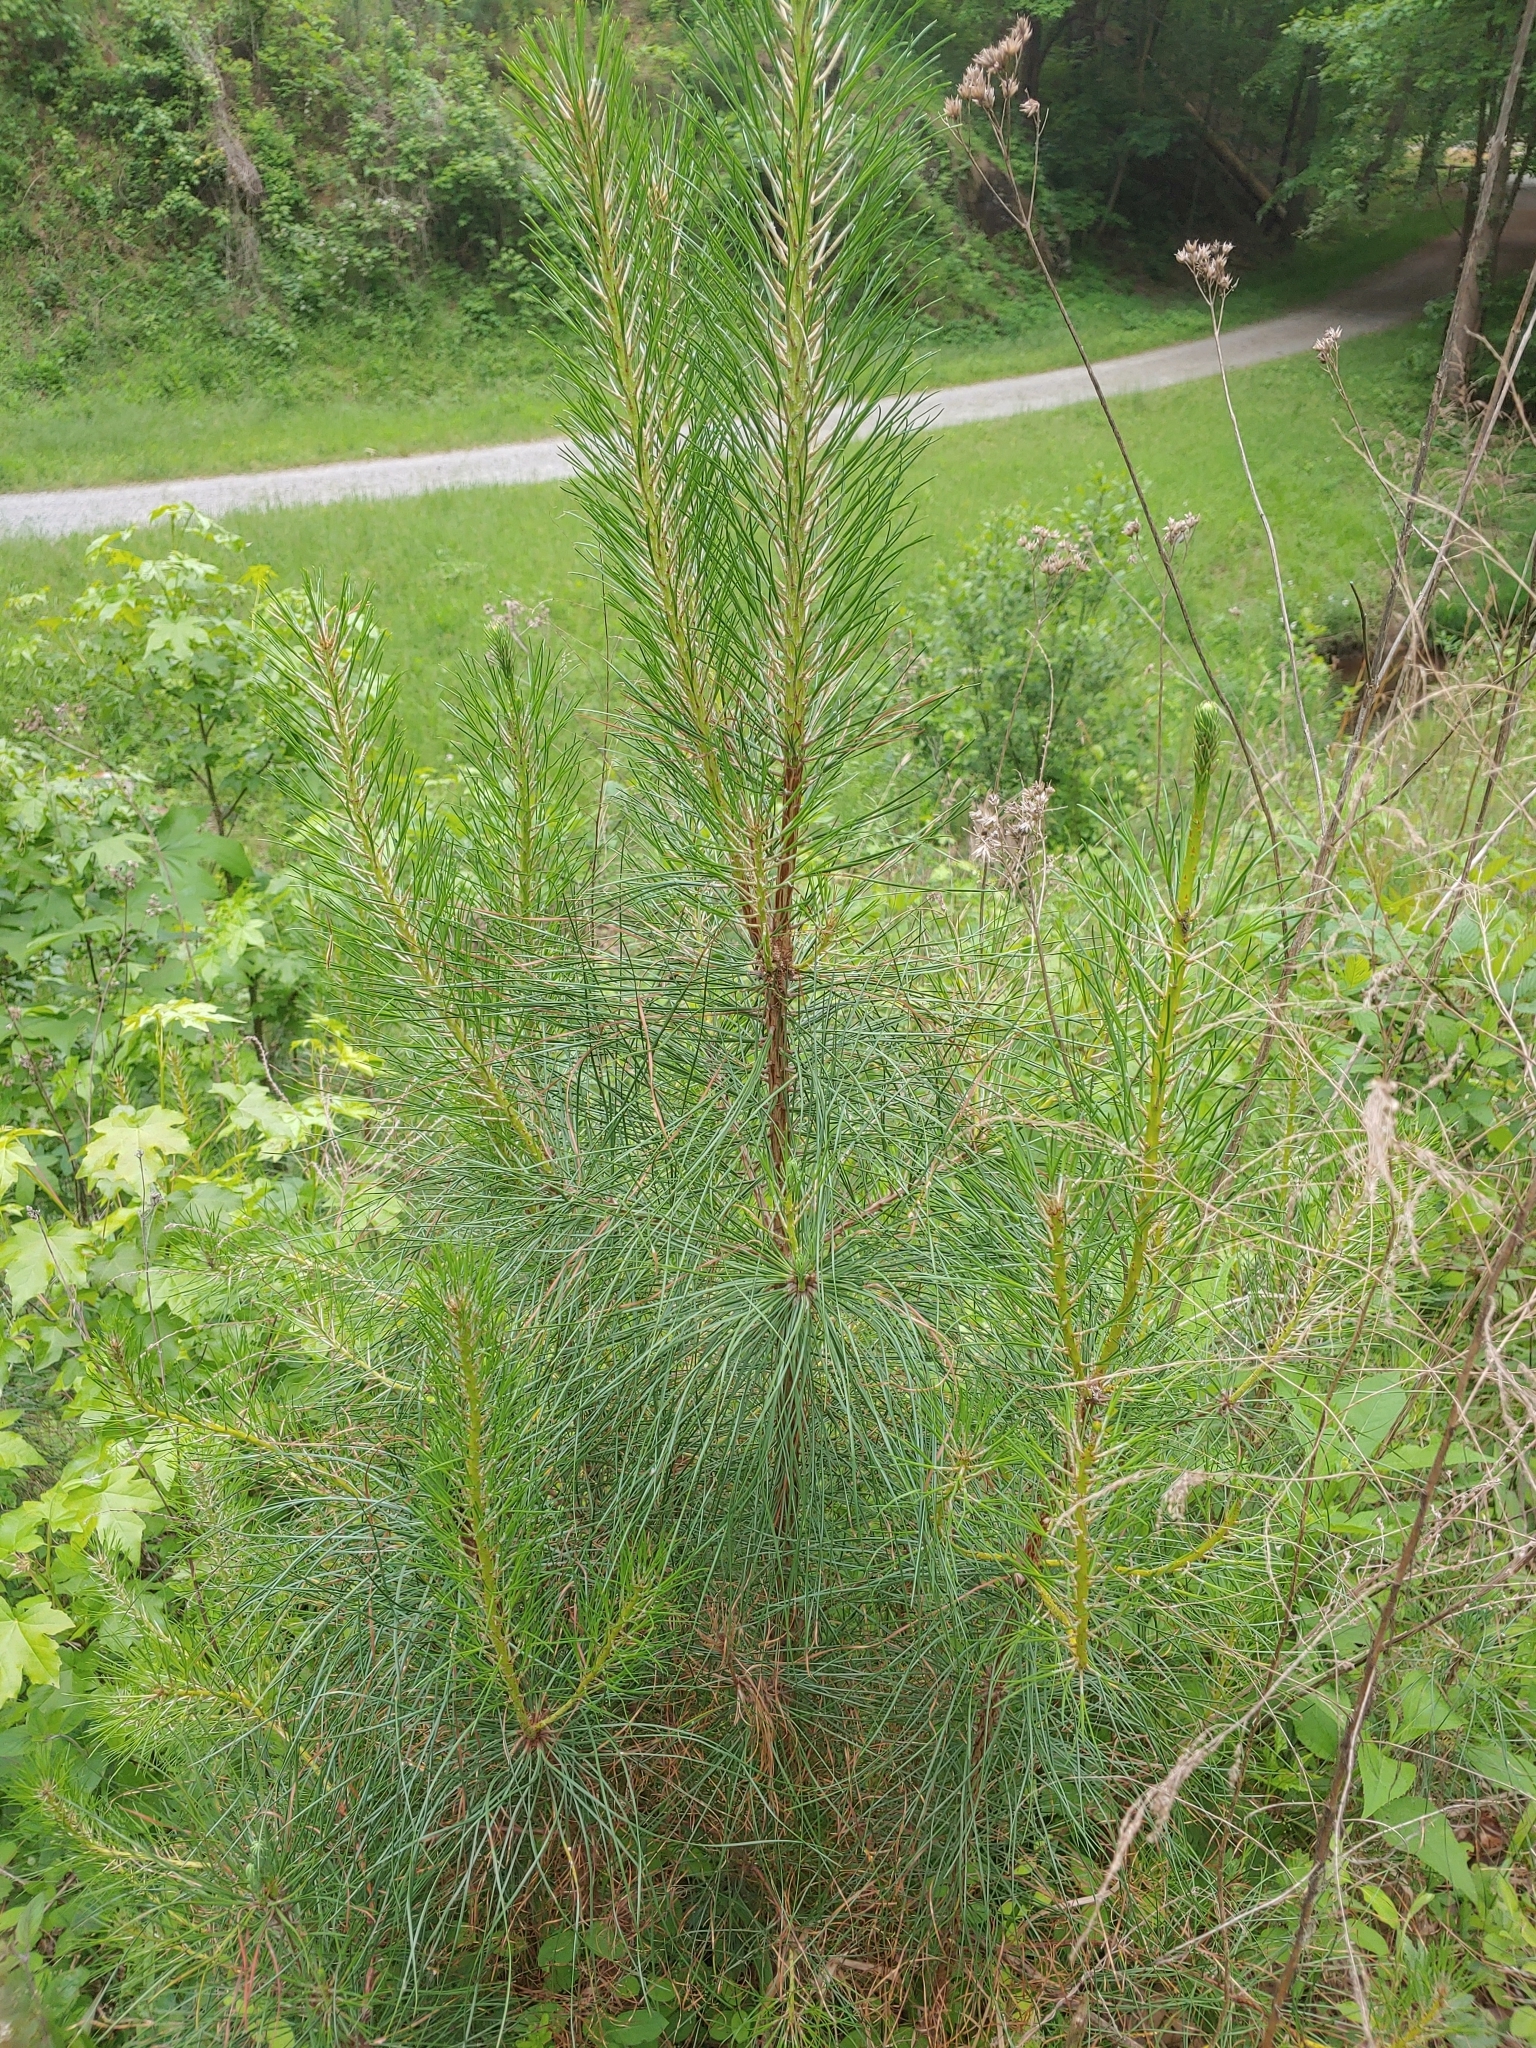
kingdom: Plantae
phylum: Tracheophyta
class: Pinopsida
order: Pinales
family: Pinaceae
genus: Pinus
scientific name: Pinus taeda
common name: Loblolly pine
